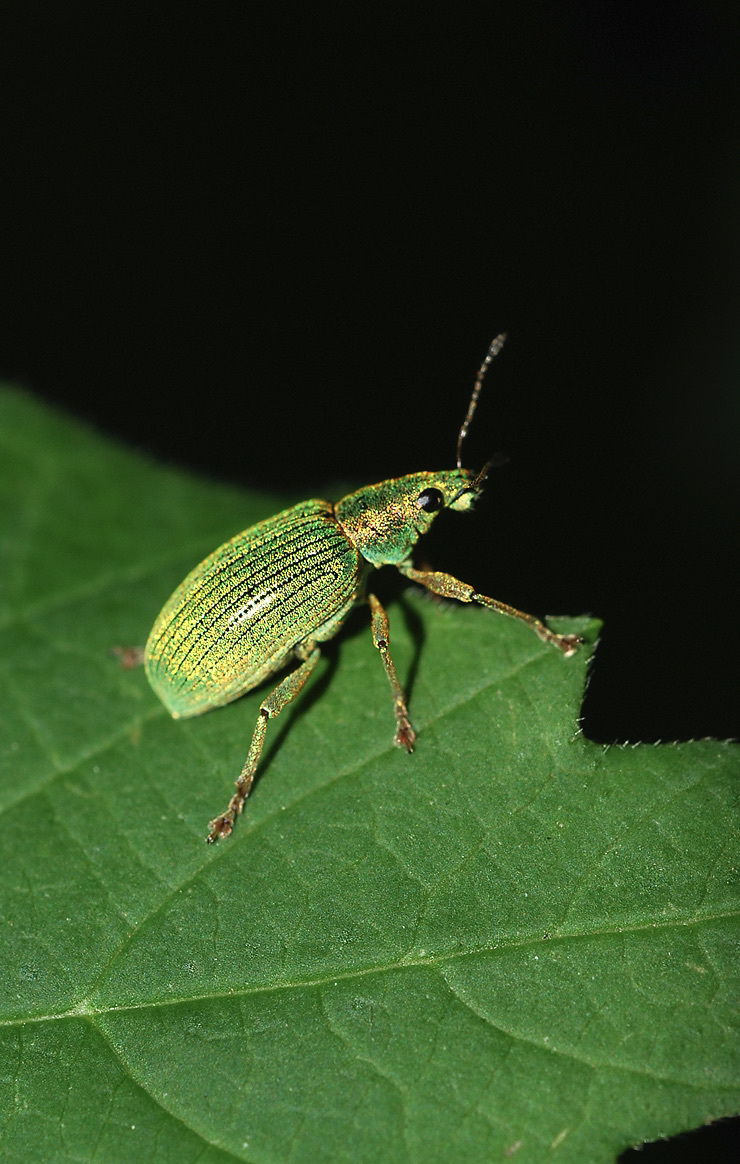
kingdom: Animalia
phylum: Arthropoda
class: Insecta
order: Coleoptera
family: Curculionidae
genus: Phyllobius
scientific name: Phyllobius pomaceus
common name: Green nettle weevil
